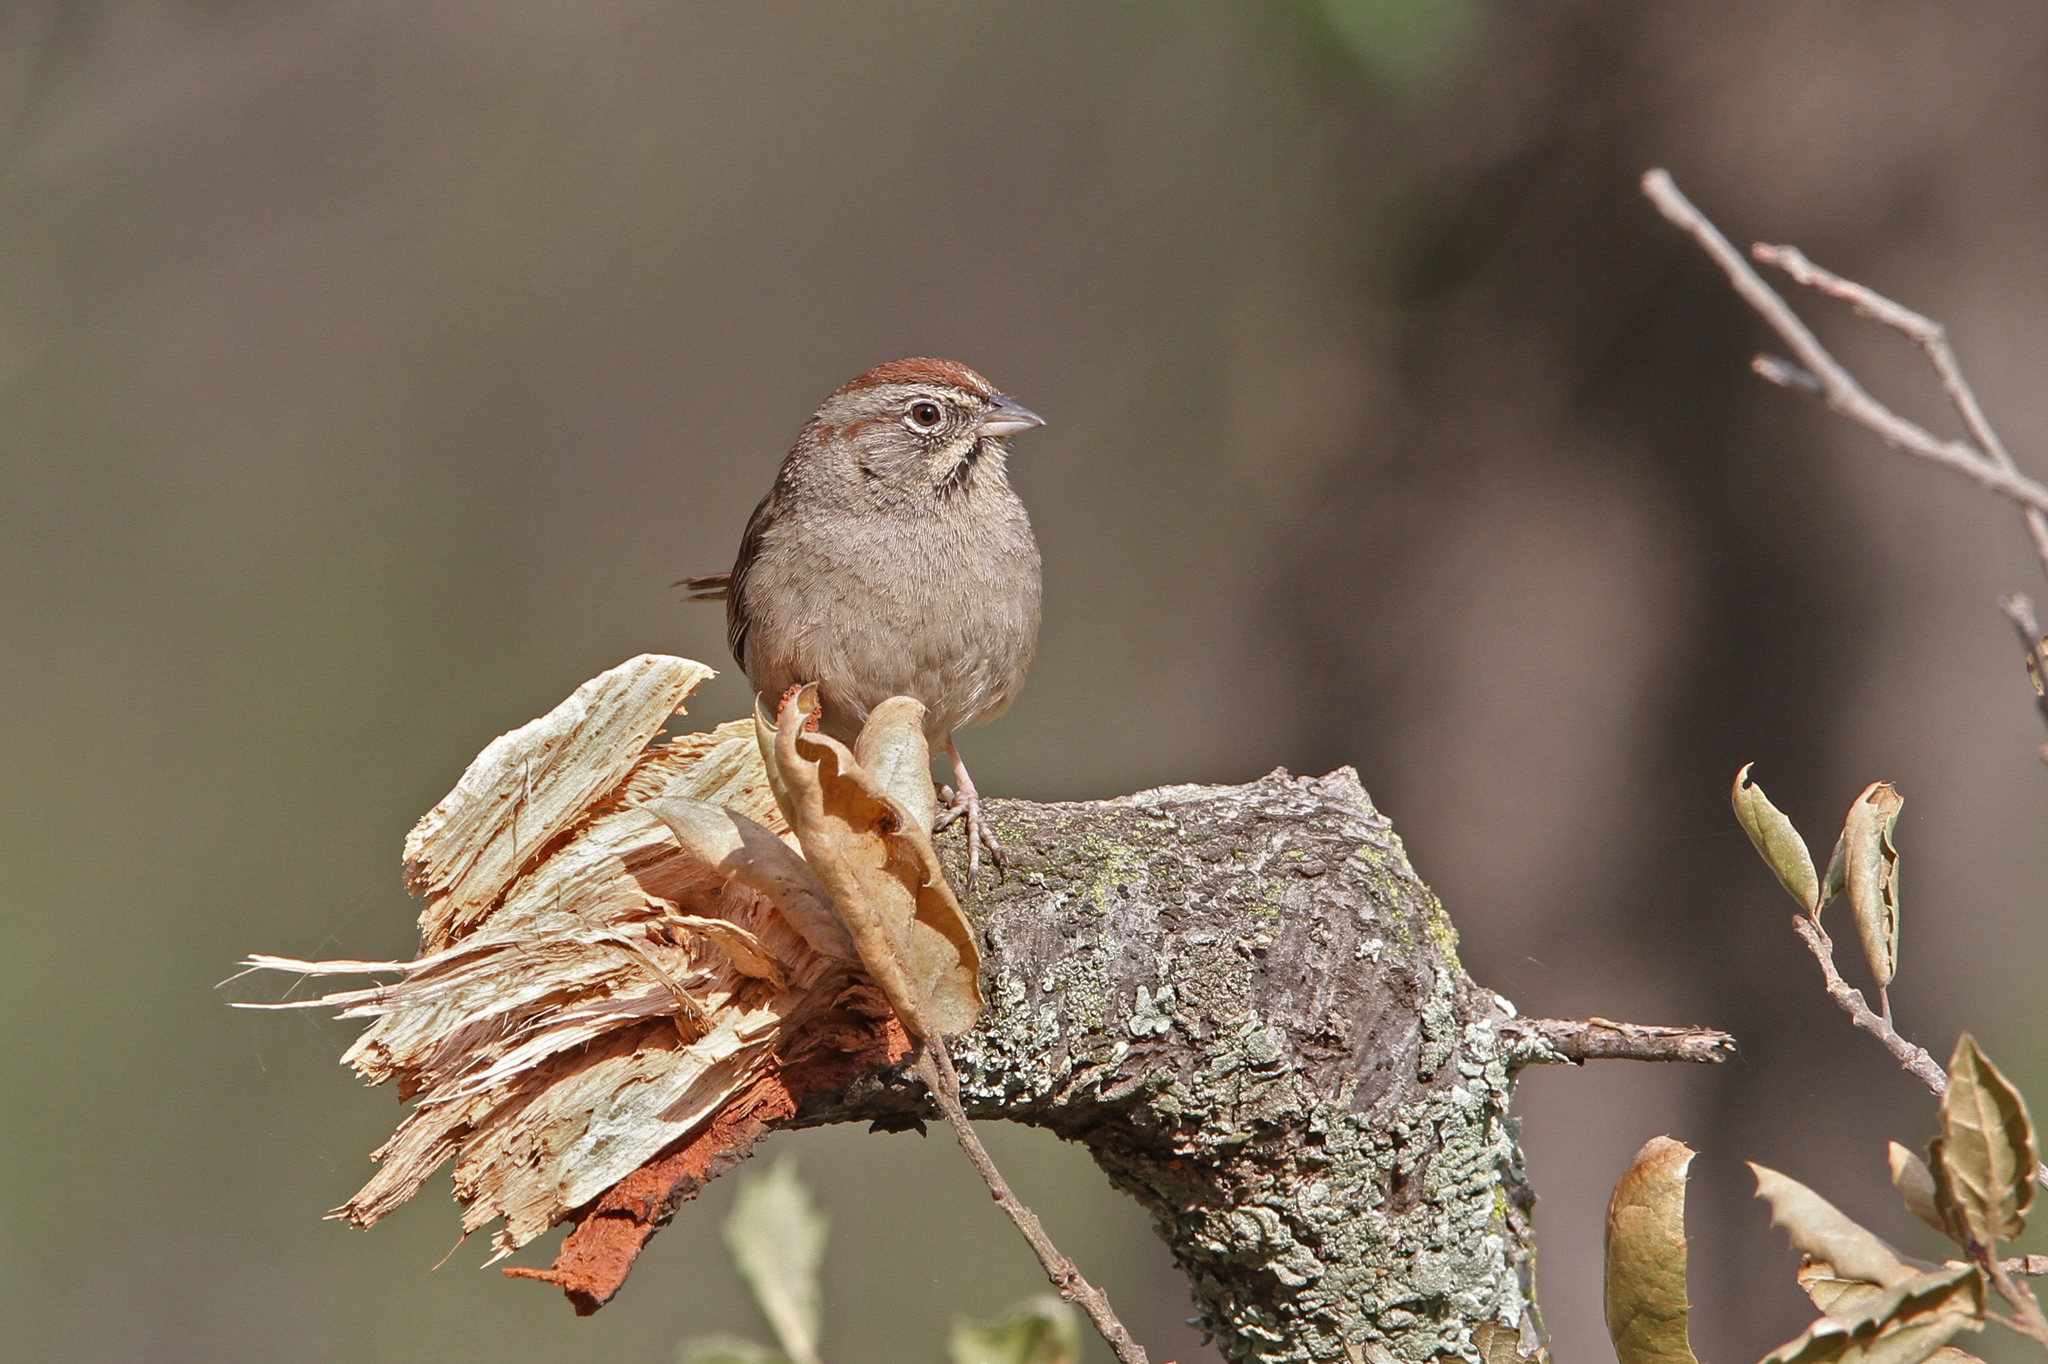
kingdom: Animalia
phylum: Chordata
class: Aves
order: Passeriformes
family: Passerellidae
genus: Aimophila
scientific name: Aimophila ruficeps
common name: Rufous-crowned sparrow
